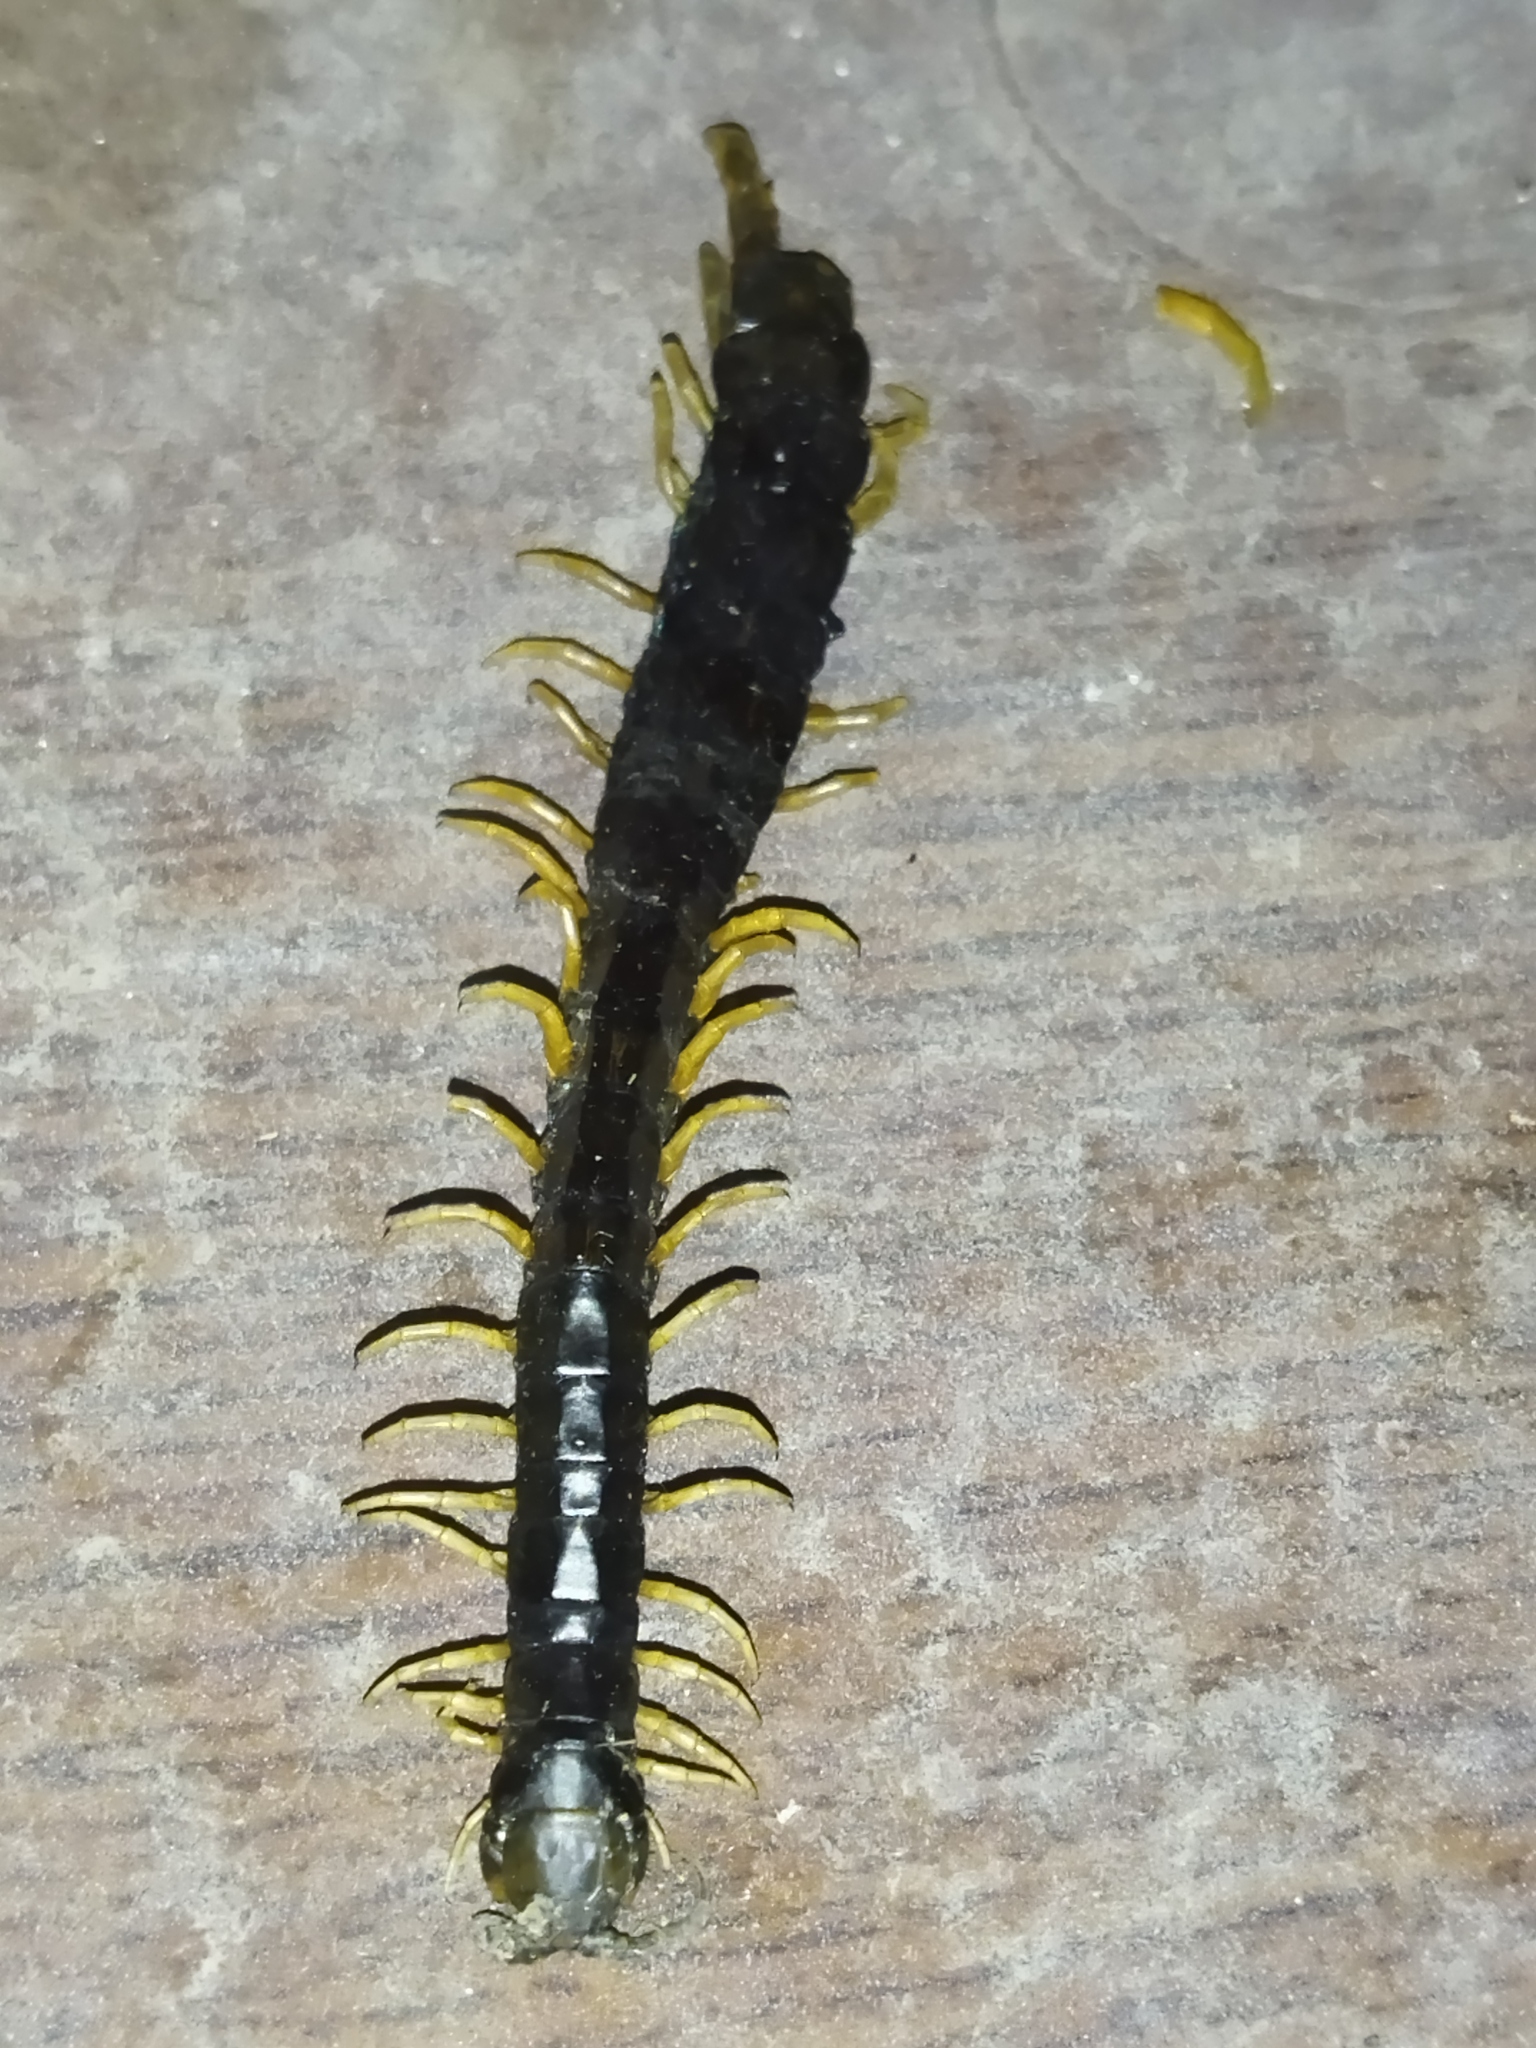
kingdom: Animalia
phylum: Arthropoda
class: Chilopoda
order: Scolopendromorpha
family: Scolopendridae
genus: Scolopendra
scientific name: Scolopendra cingulata
